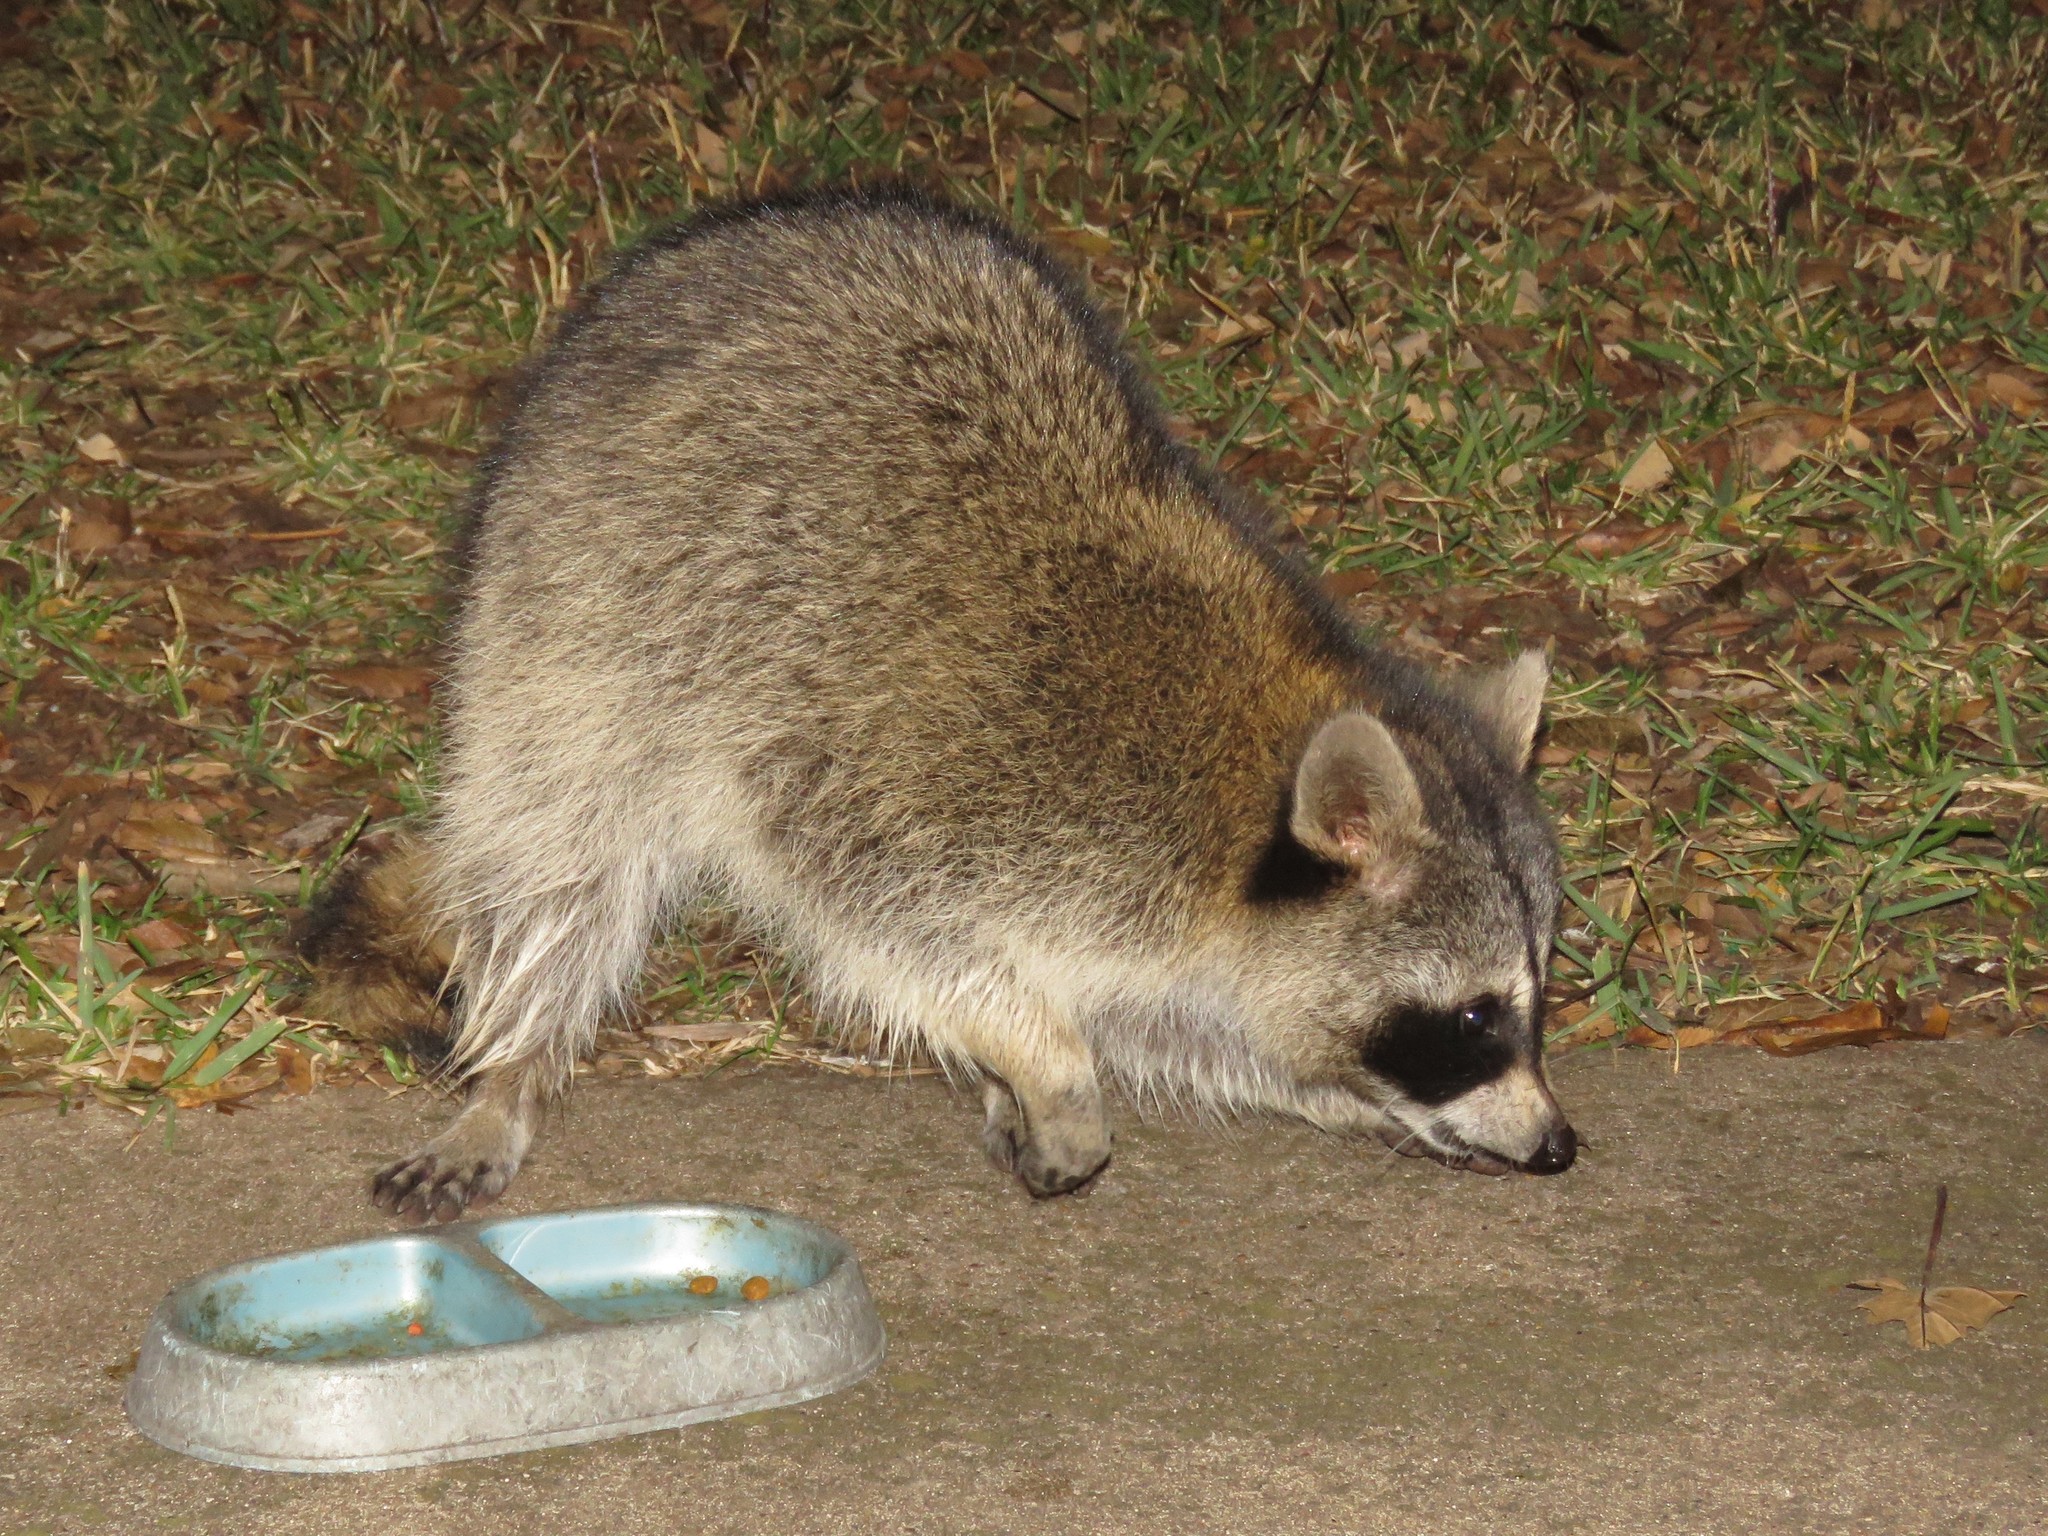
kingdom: Animalia
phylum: Chordata
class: Mammalia
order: Carnivora
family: Procyonidae
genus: Procyon
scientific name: Procyon lotor
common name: Raccoon
